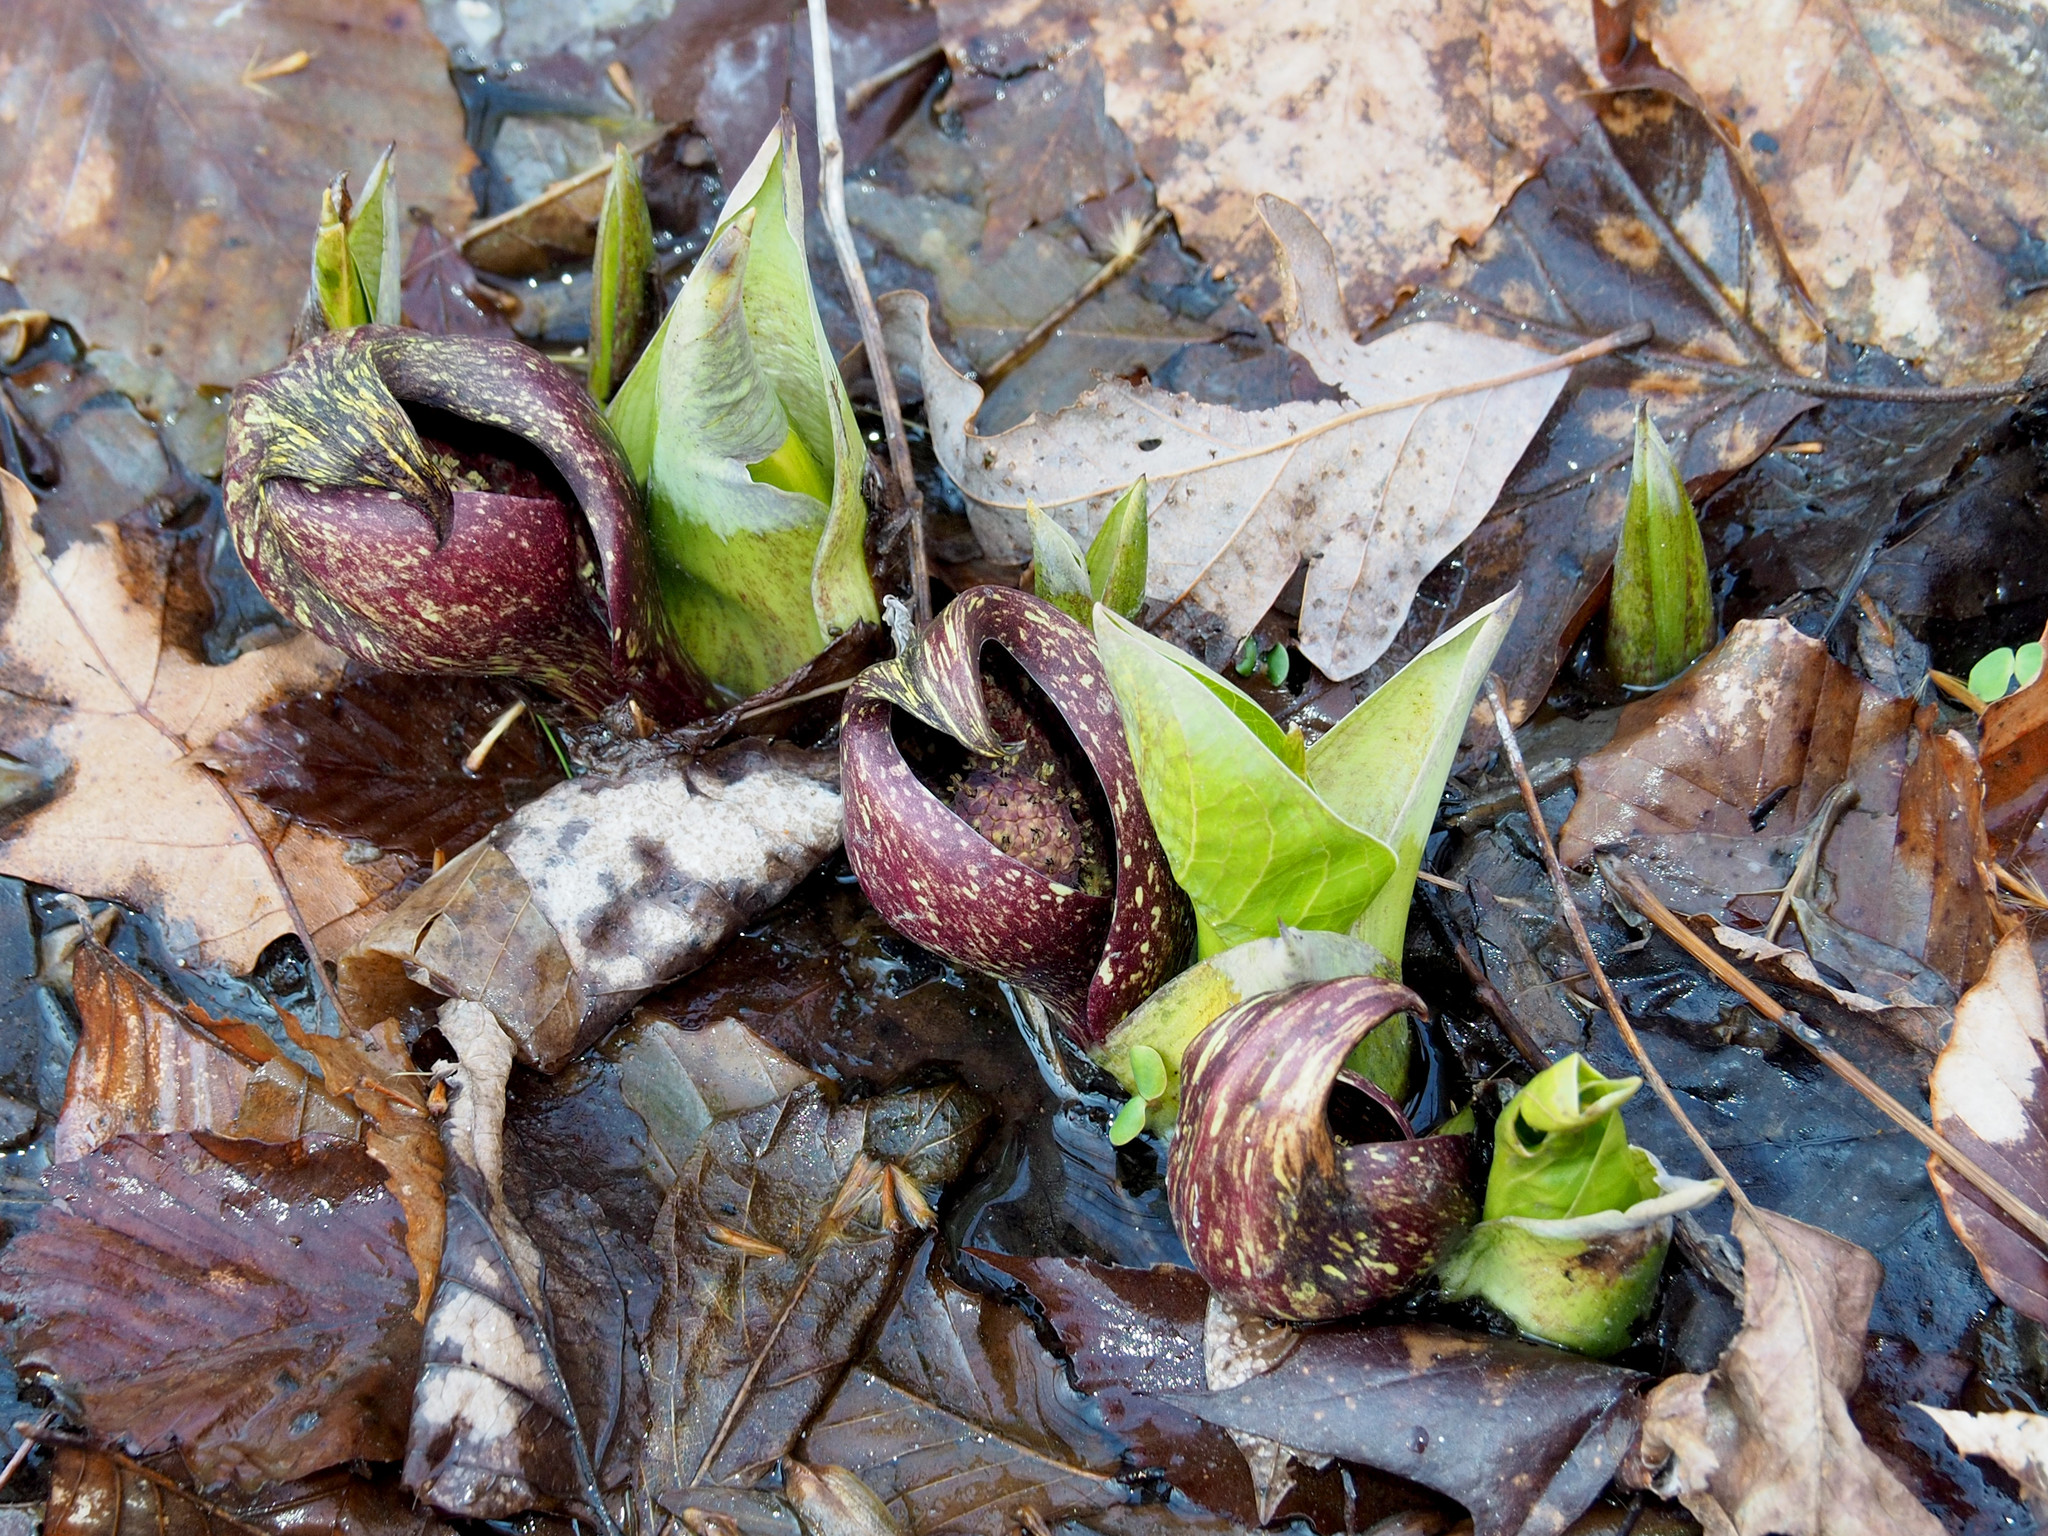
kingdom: Plantae
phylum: Tracheophyta
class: Liliopsida
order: Alismatales
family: Araceae
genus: Symplocarpus
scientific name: Symplocarpus foetidus
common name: Eastern skunk cabbage
